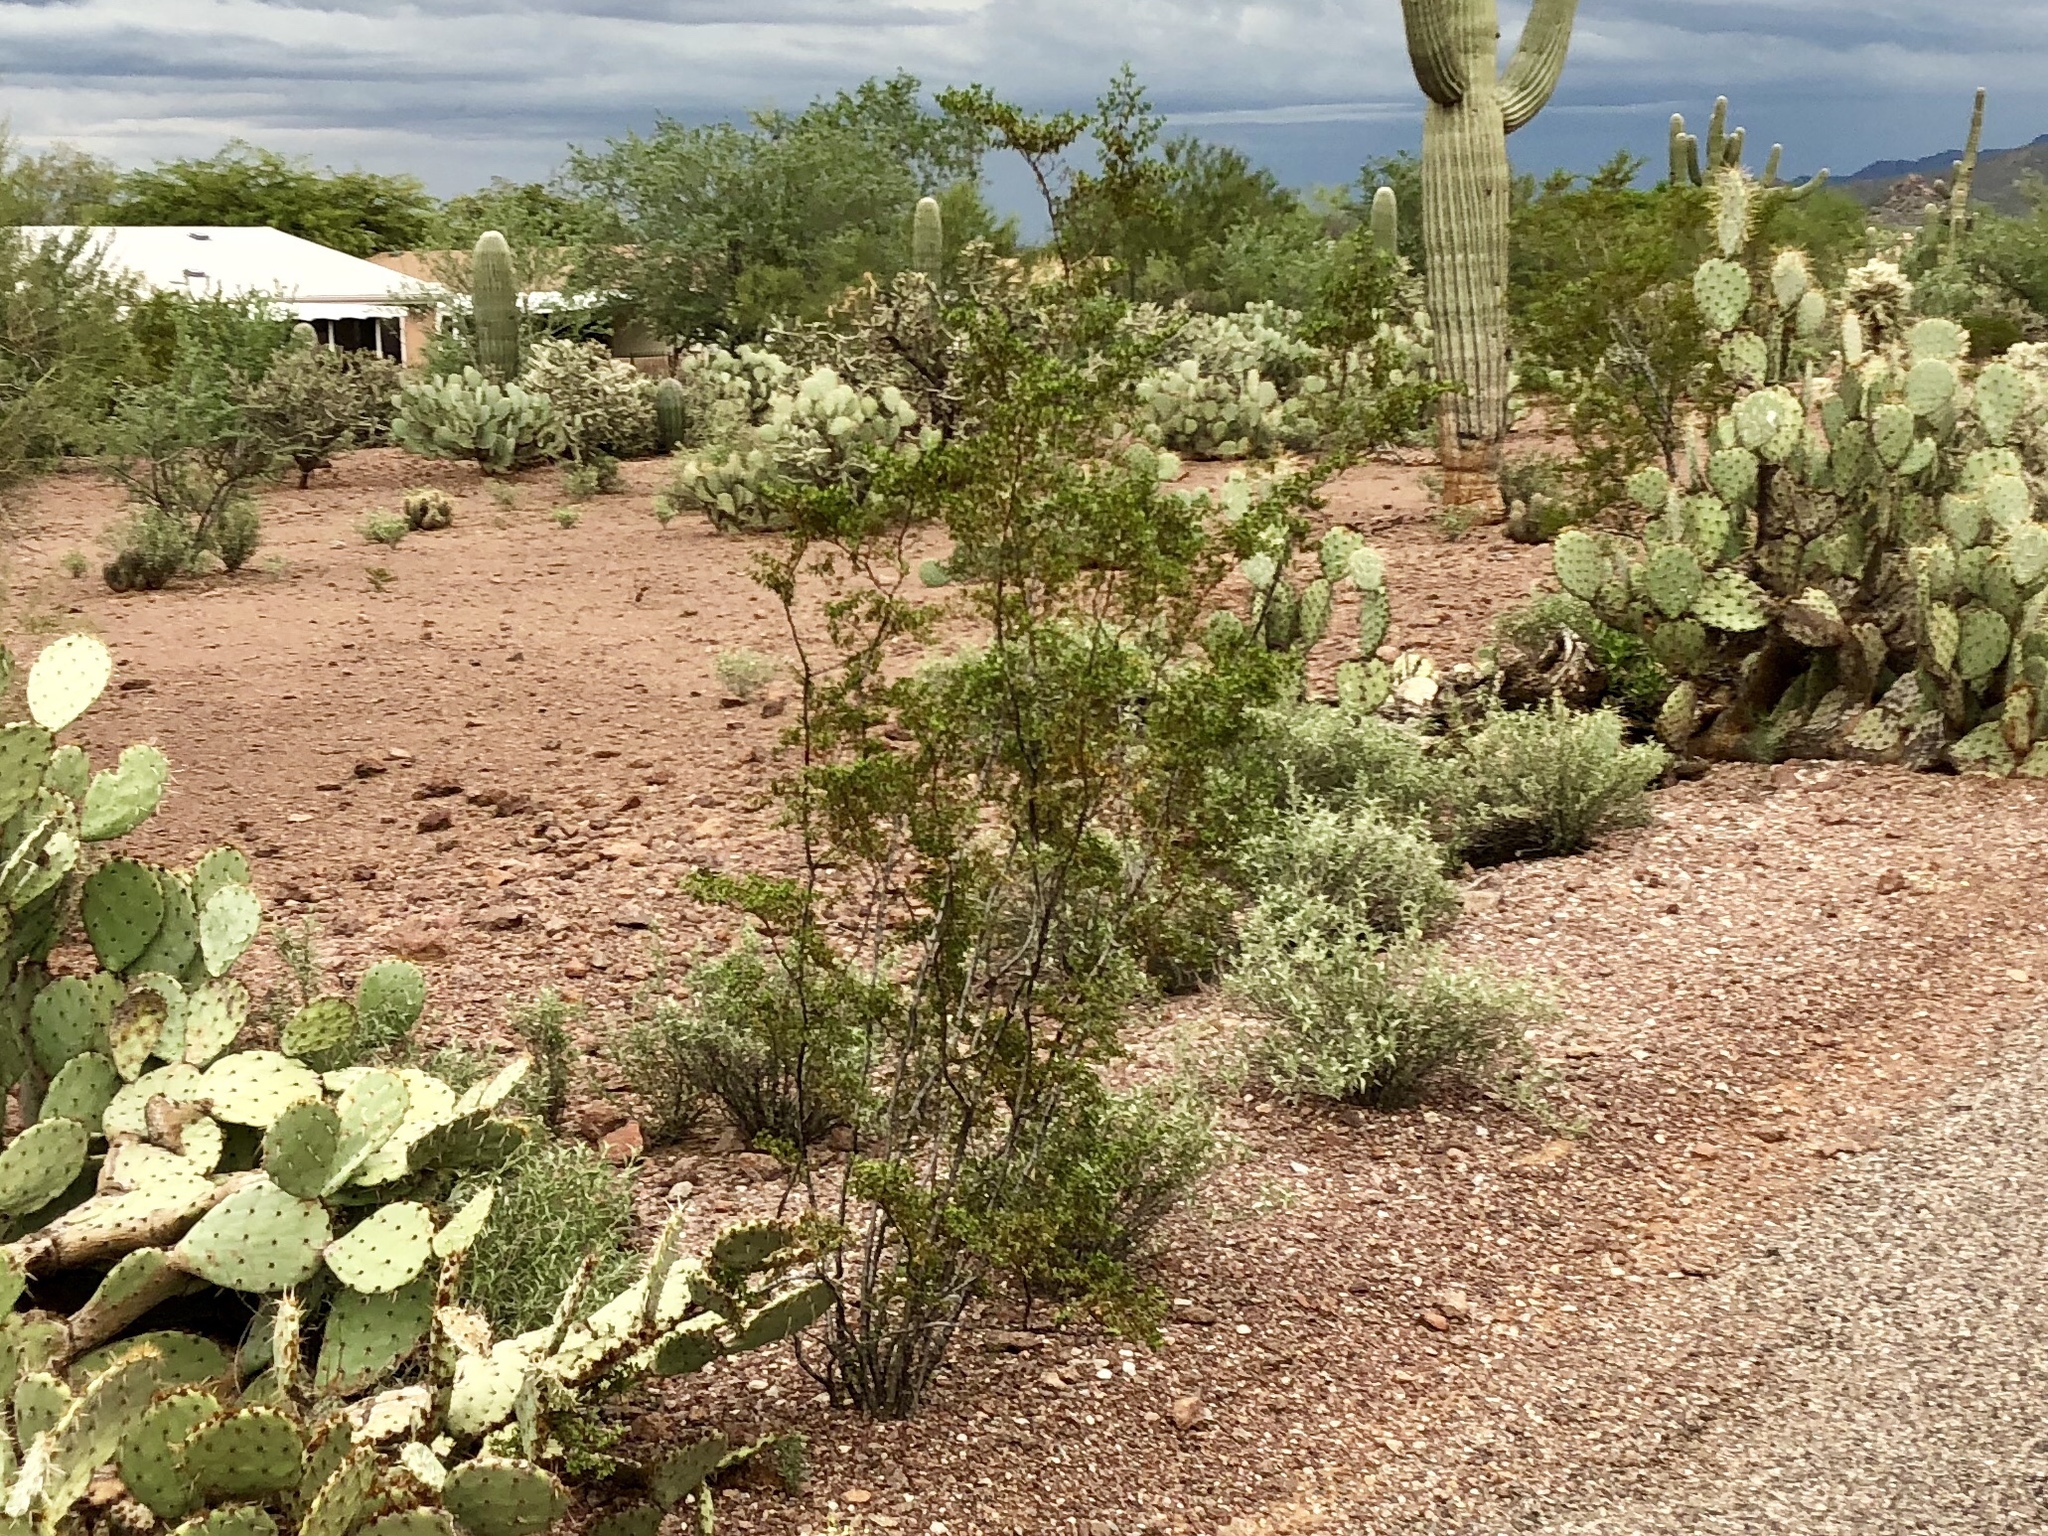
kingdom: Plantae
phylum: Tracheophyta
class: Magnoliopsida
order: Zygophyllales
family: Zygophyllaceae
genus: Larrea
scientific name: Larrea tridentata
